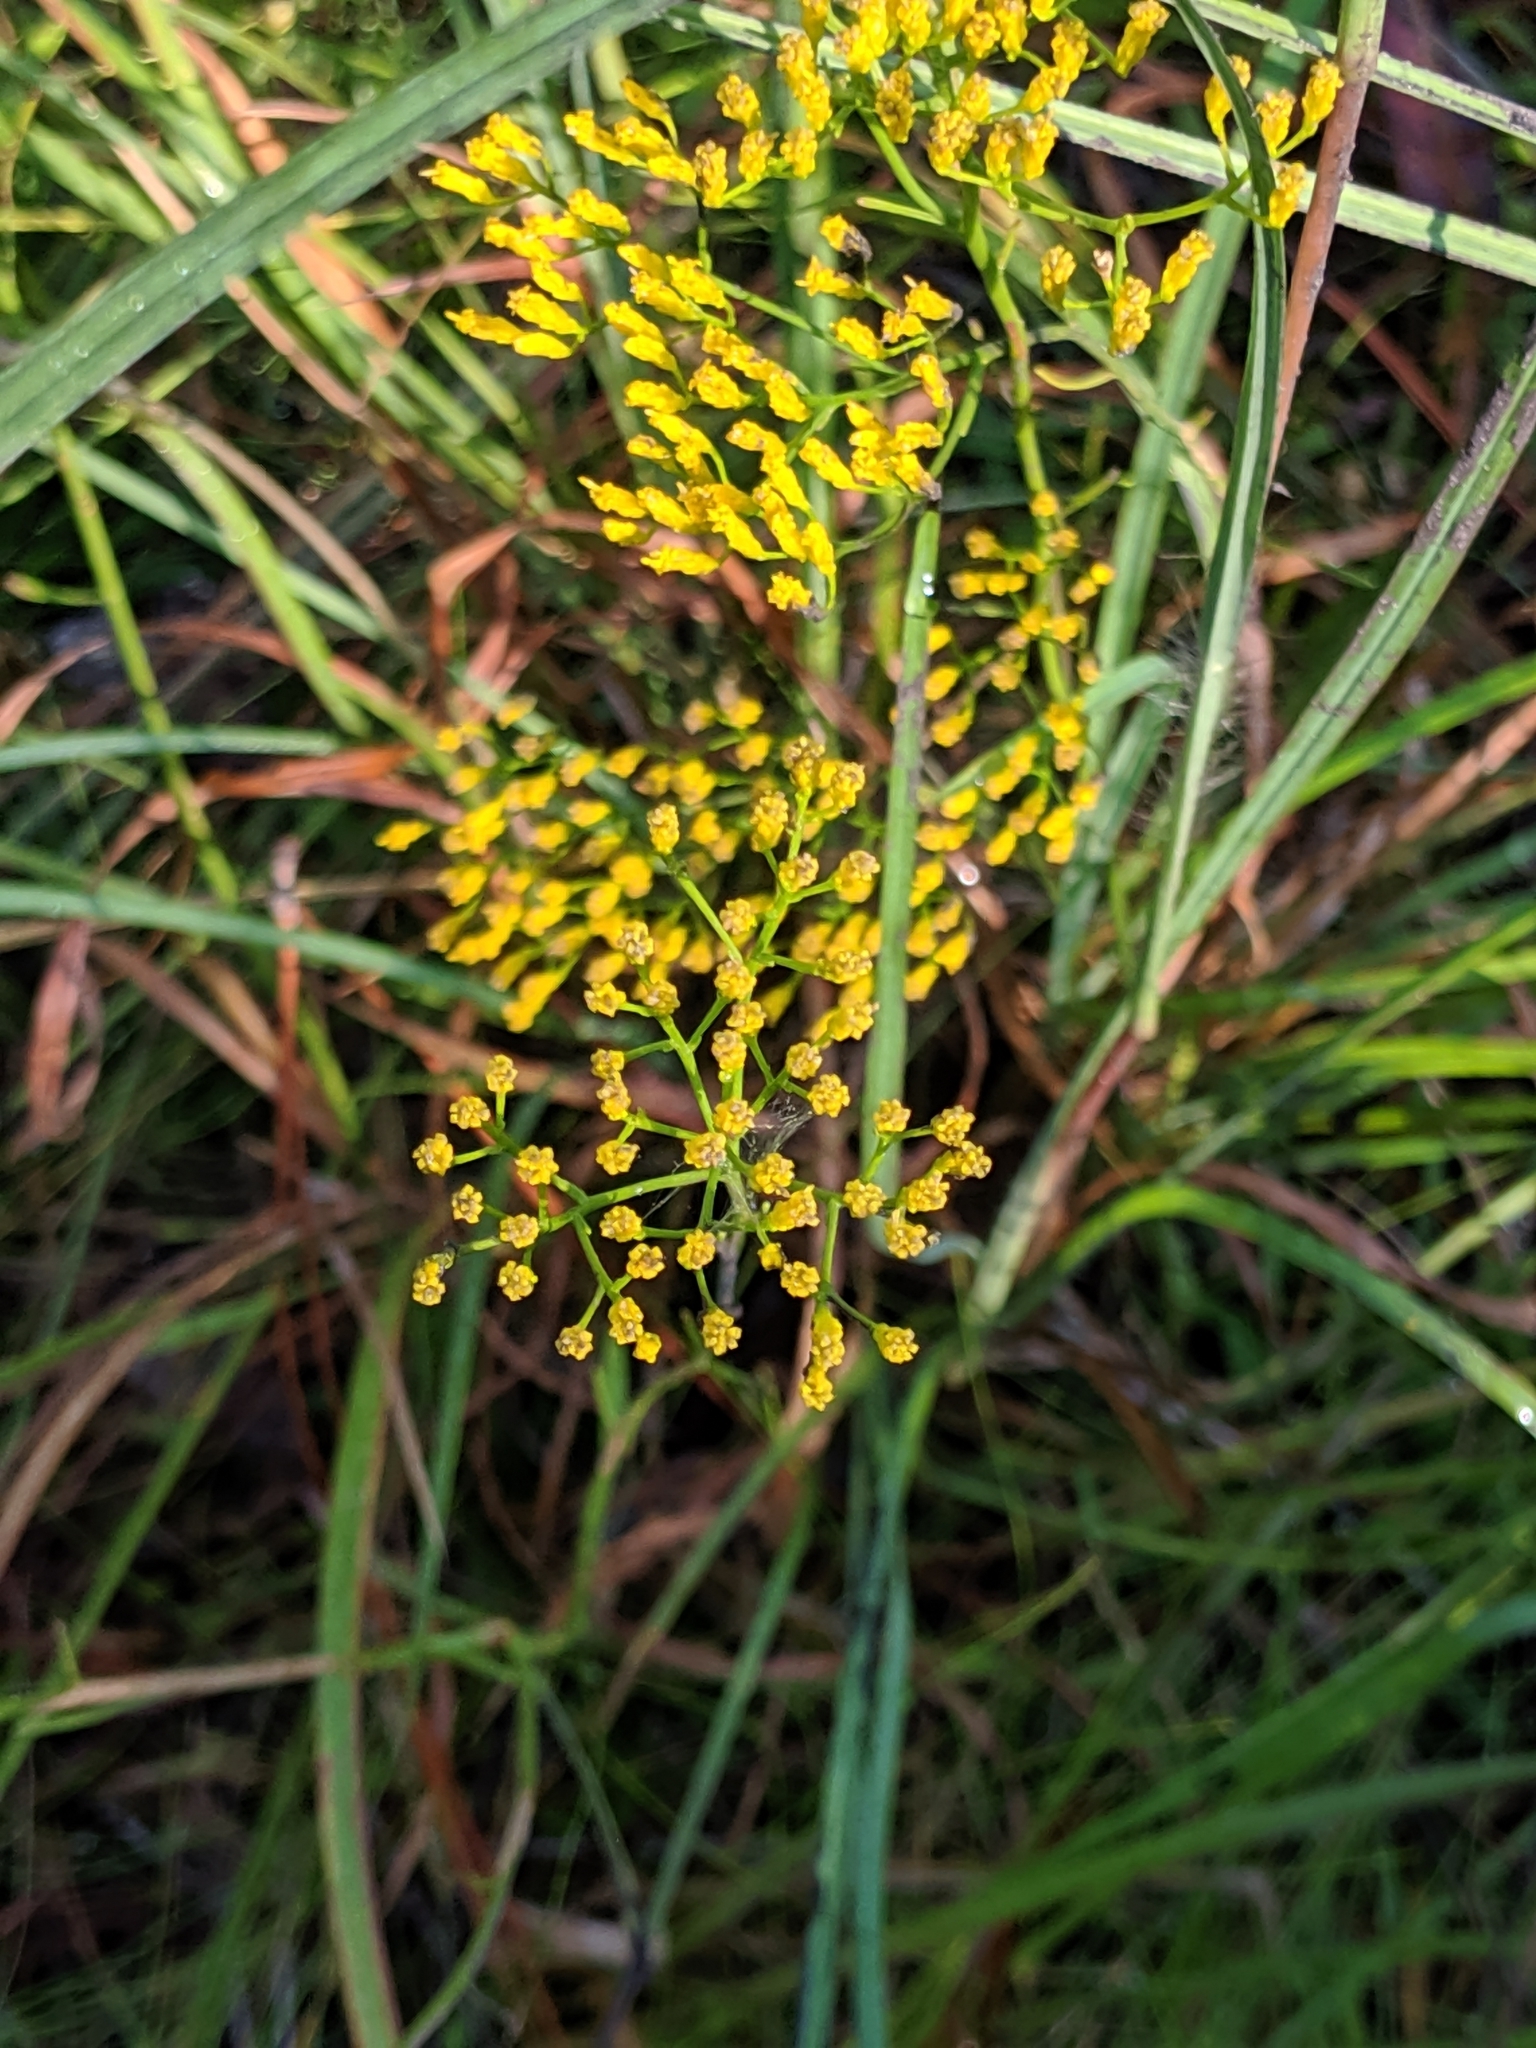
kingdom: Plantae
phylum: Tracheophyta
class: Magnoliopsida
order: Asterales
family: Asteraceae
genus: Bigelowia
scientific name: Bigelowia nudata
